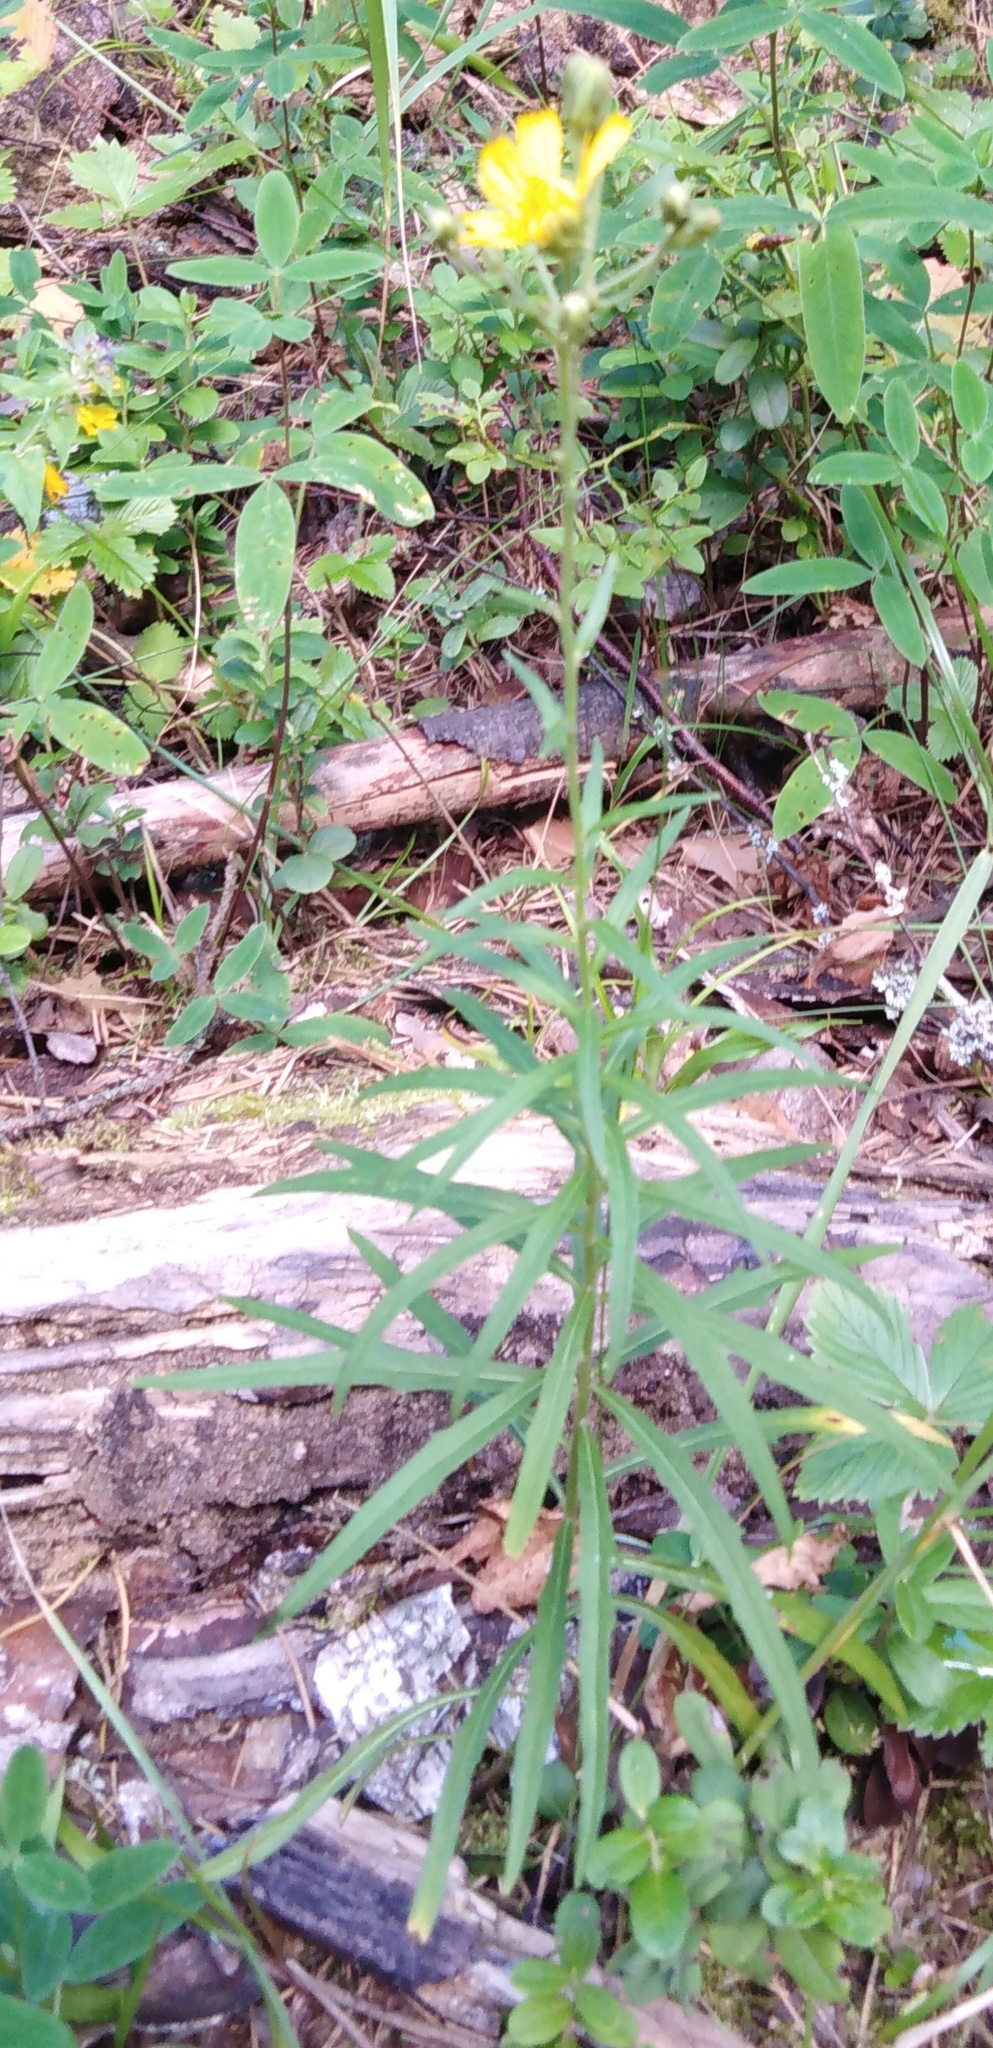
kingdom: Plantae
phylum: Tracheophyta
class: Magnoliopsida
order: Asterales
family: Asteraceae
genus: Hieracium
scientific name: Hieracium umbellatum
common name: Northern hawkweed
